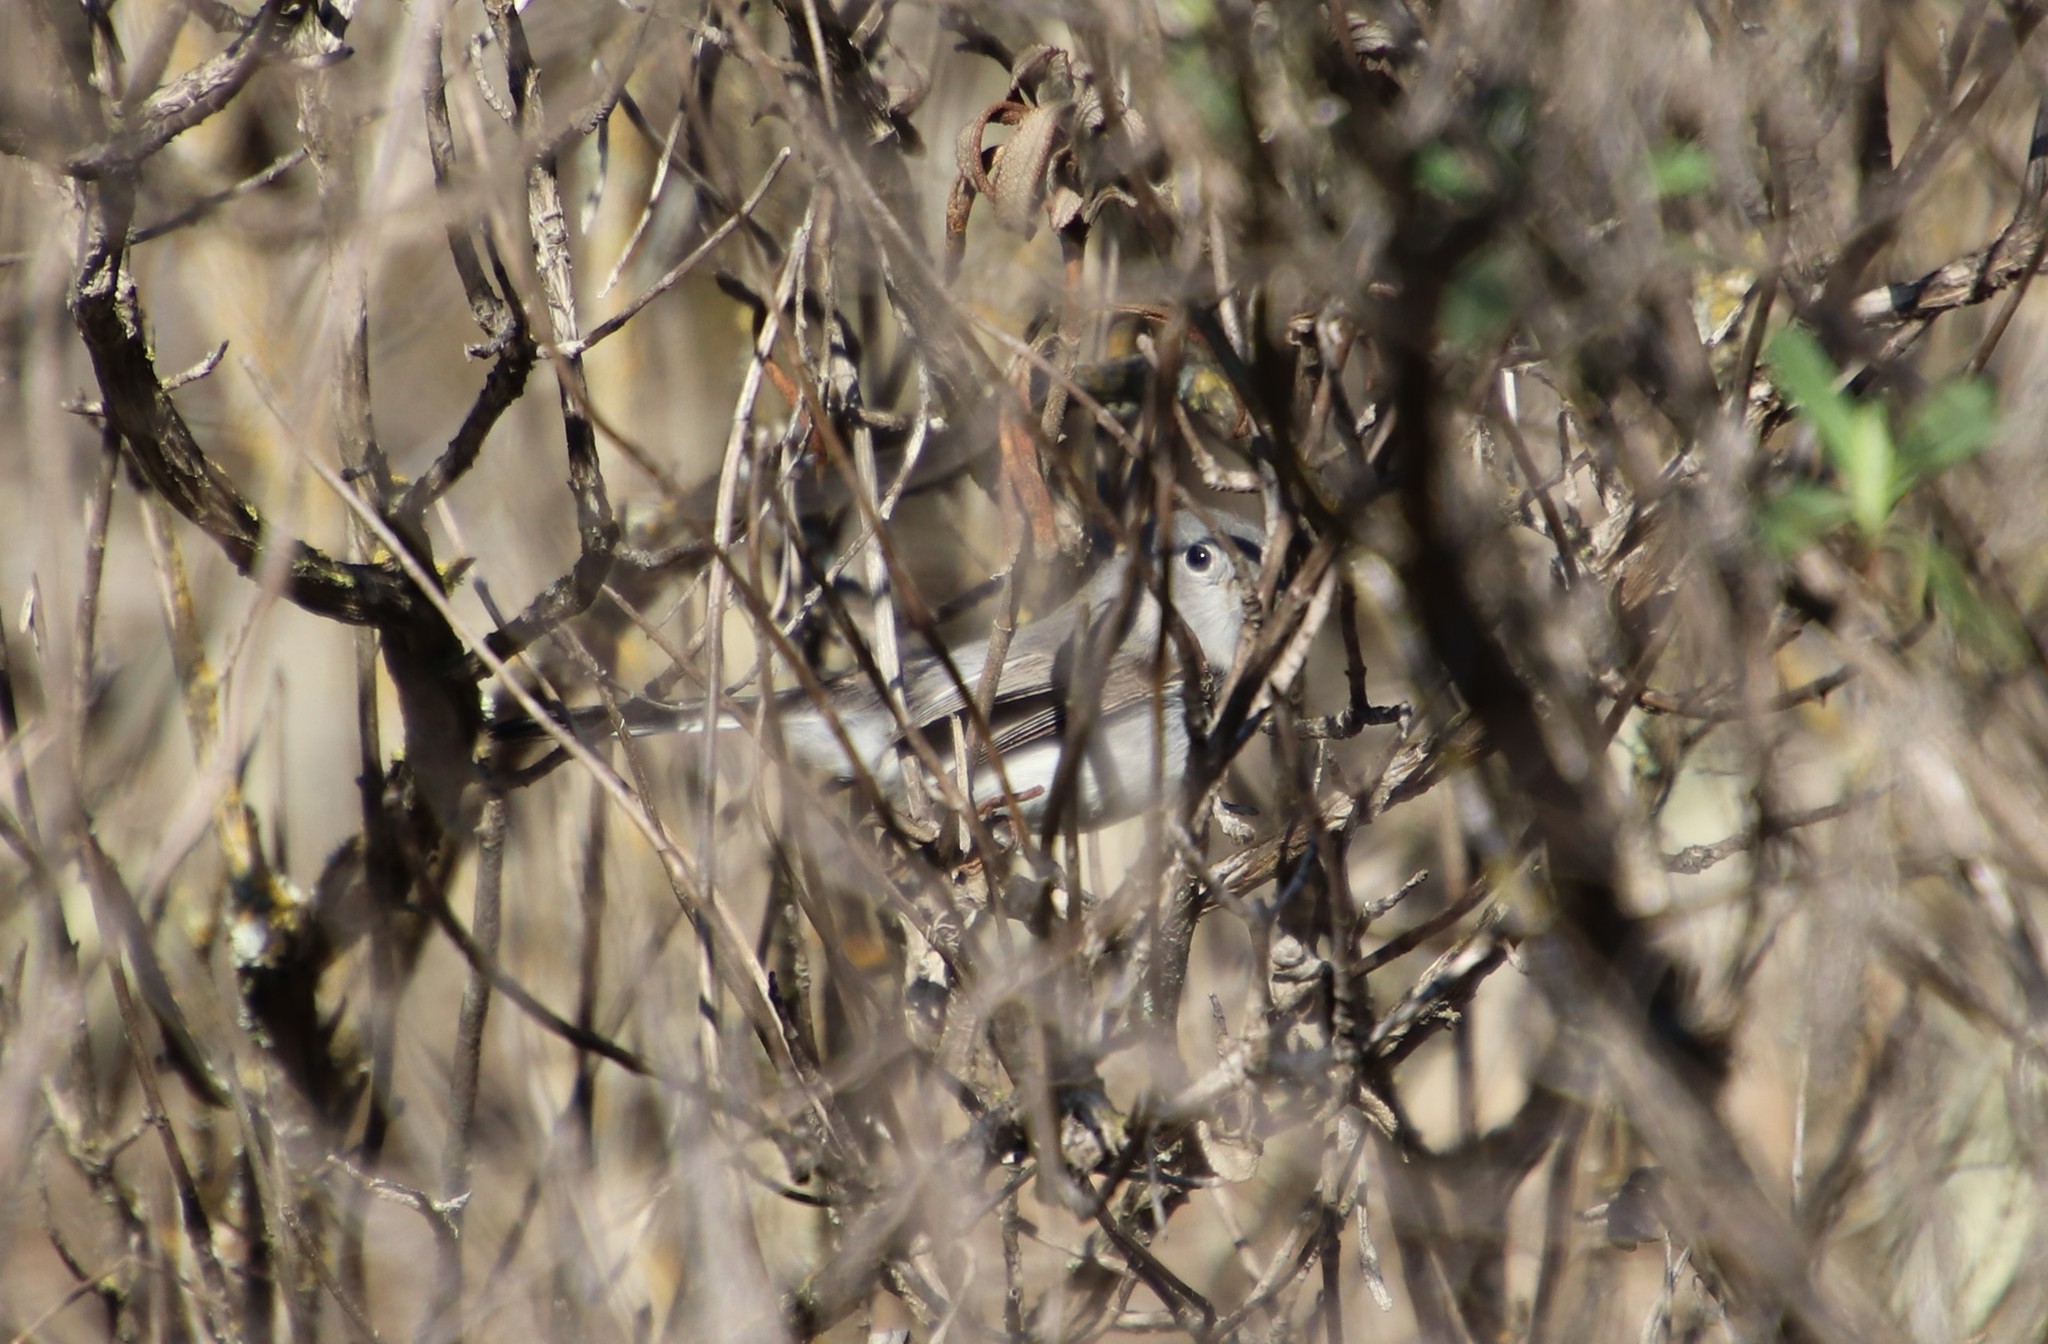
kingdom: Animalia
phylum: Chordata
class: Aves
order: Passeriformes
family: Polioptilidae
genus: Polioptila
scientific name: Polioptila caerulea
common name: Blue-gray gnatcatcher
